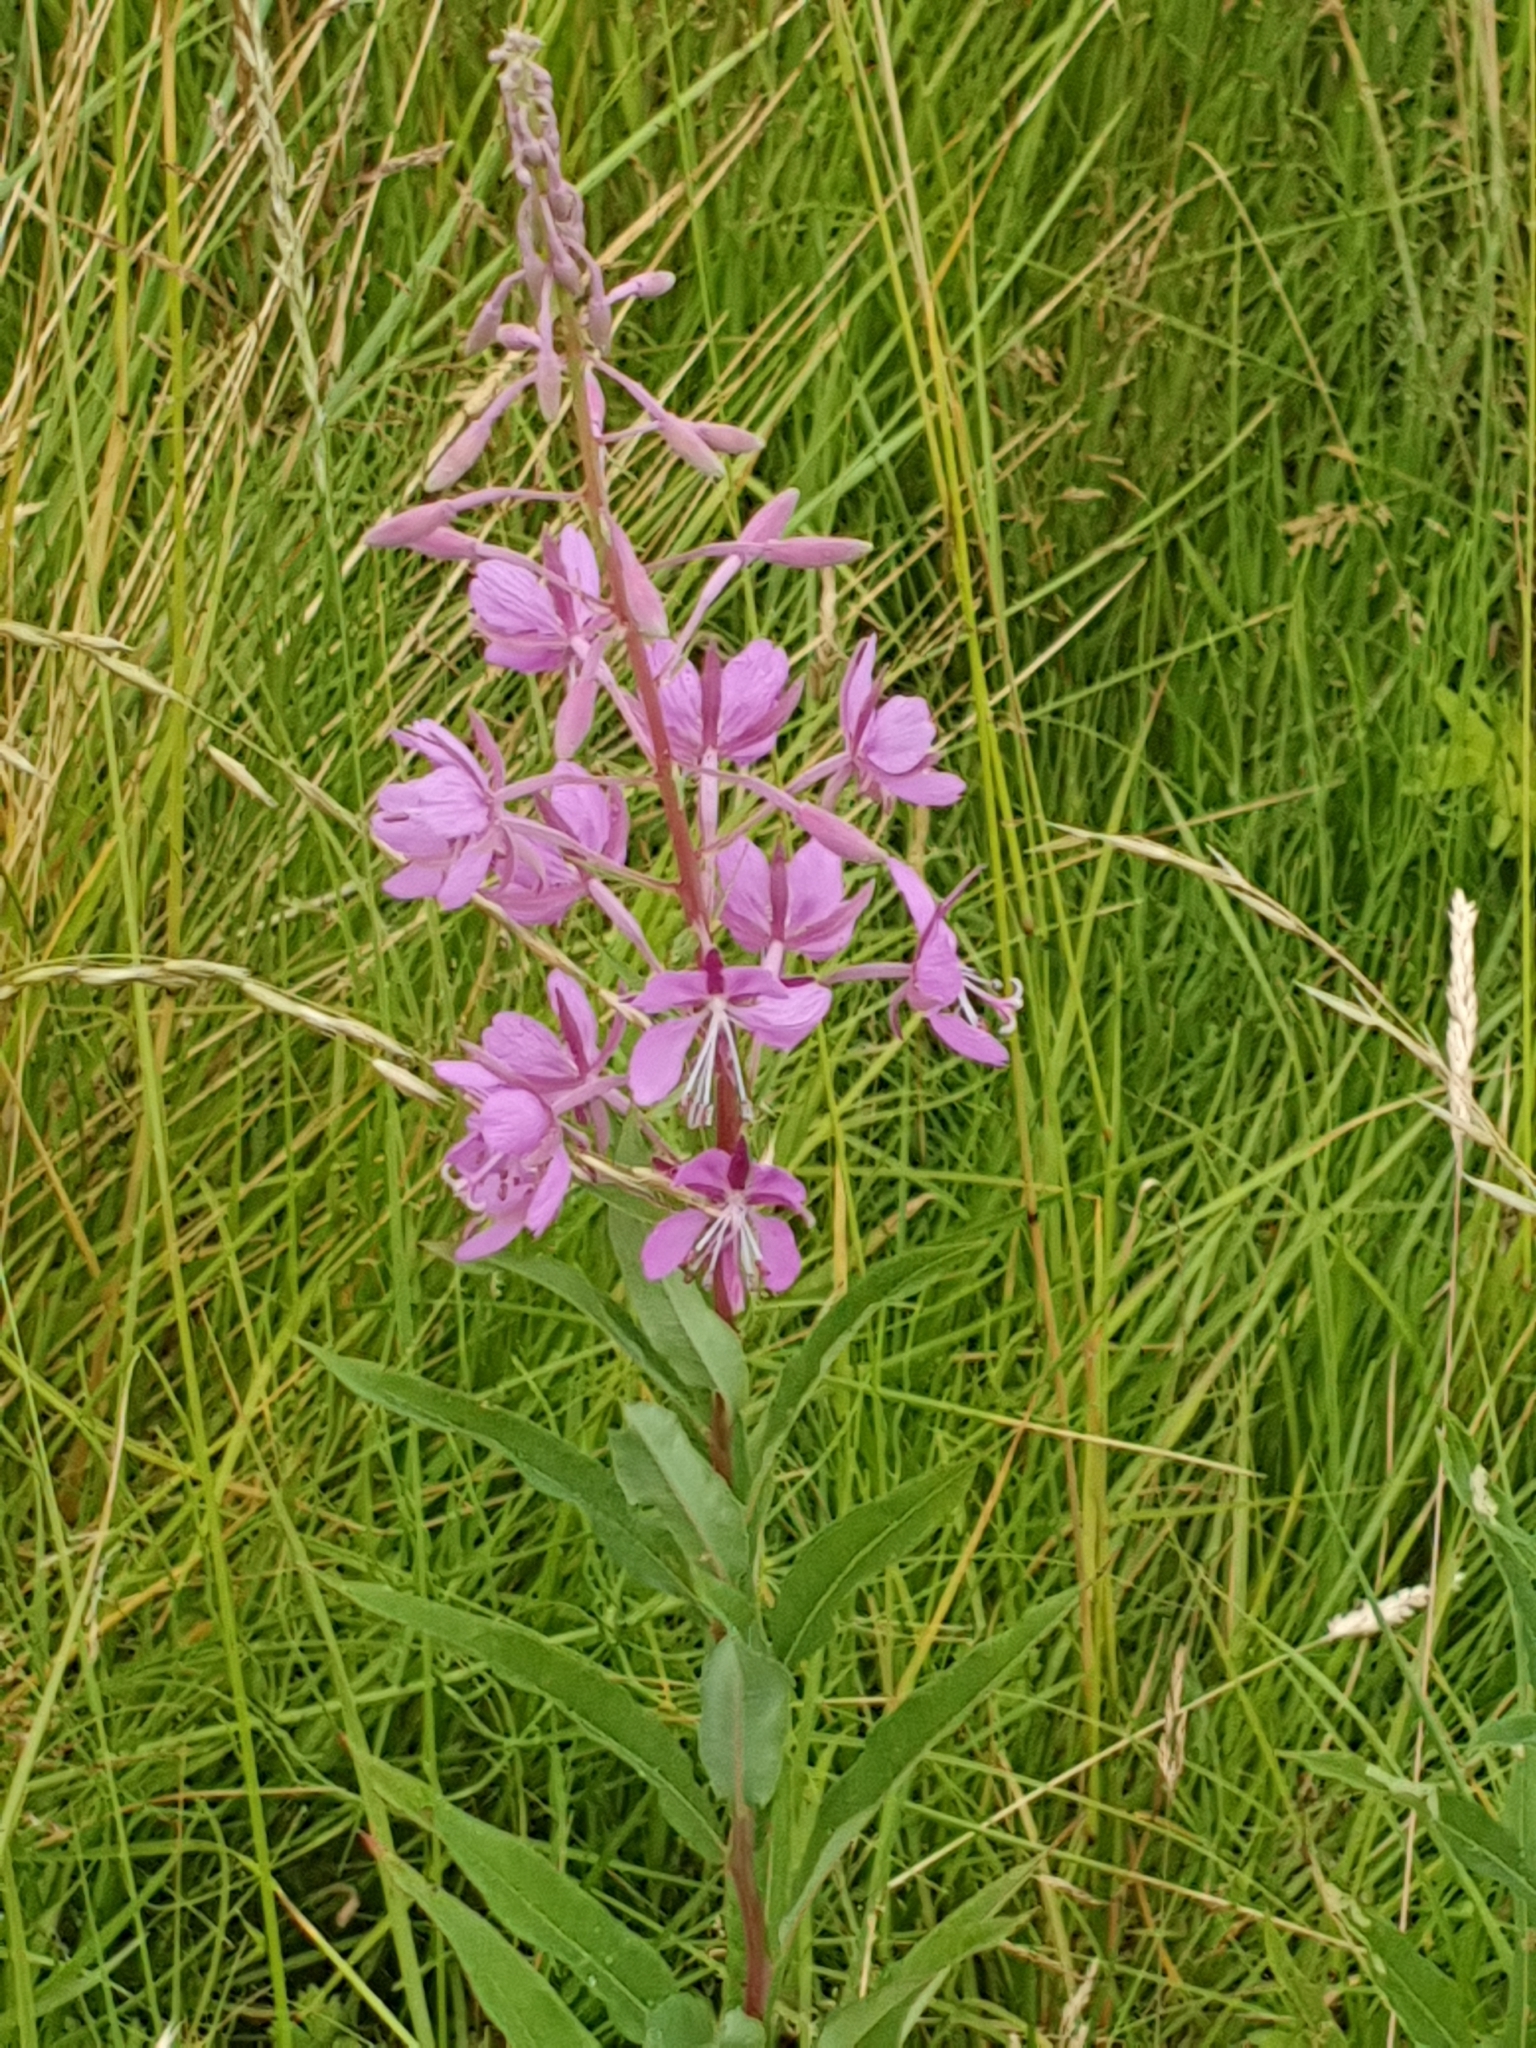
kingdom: Plantae
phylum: Tracheophyta
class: Magnoliopsida
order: Myrtales
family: Onagraceae
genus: Chamaenerion
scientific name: Chamaenerion angustifolium
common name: Fireweed
